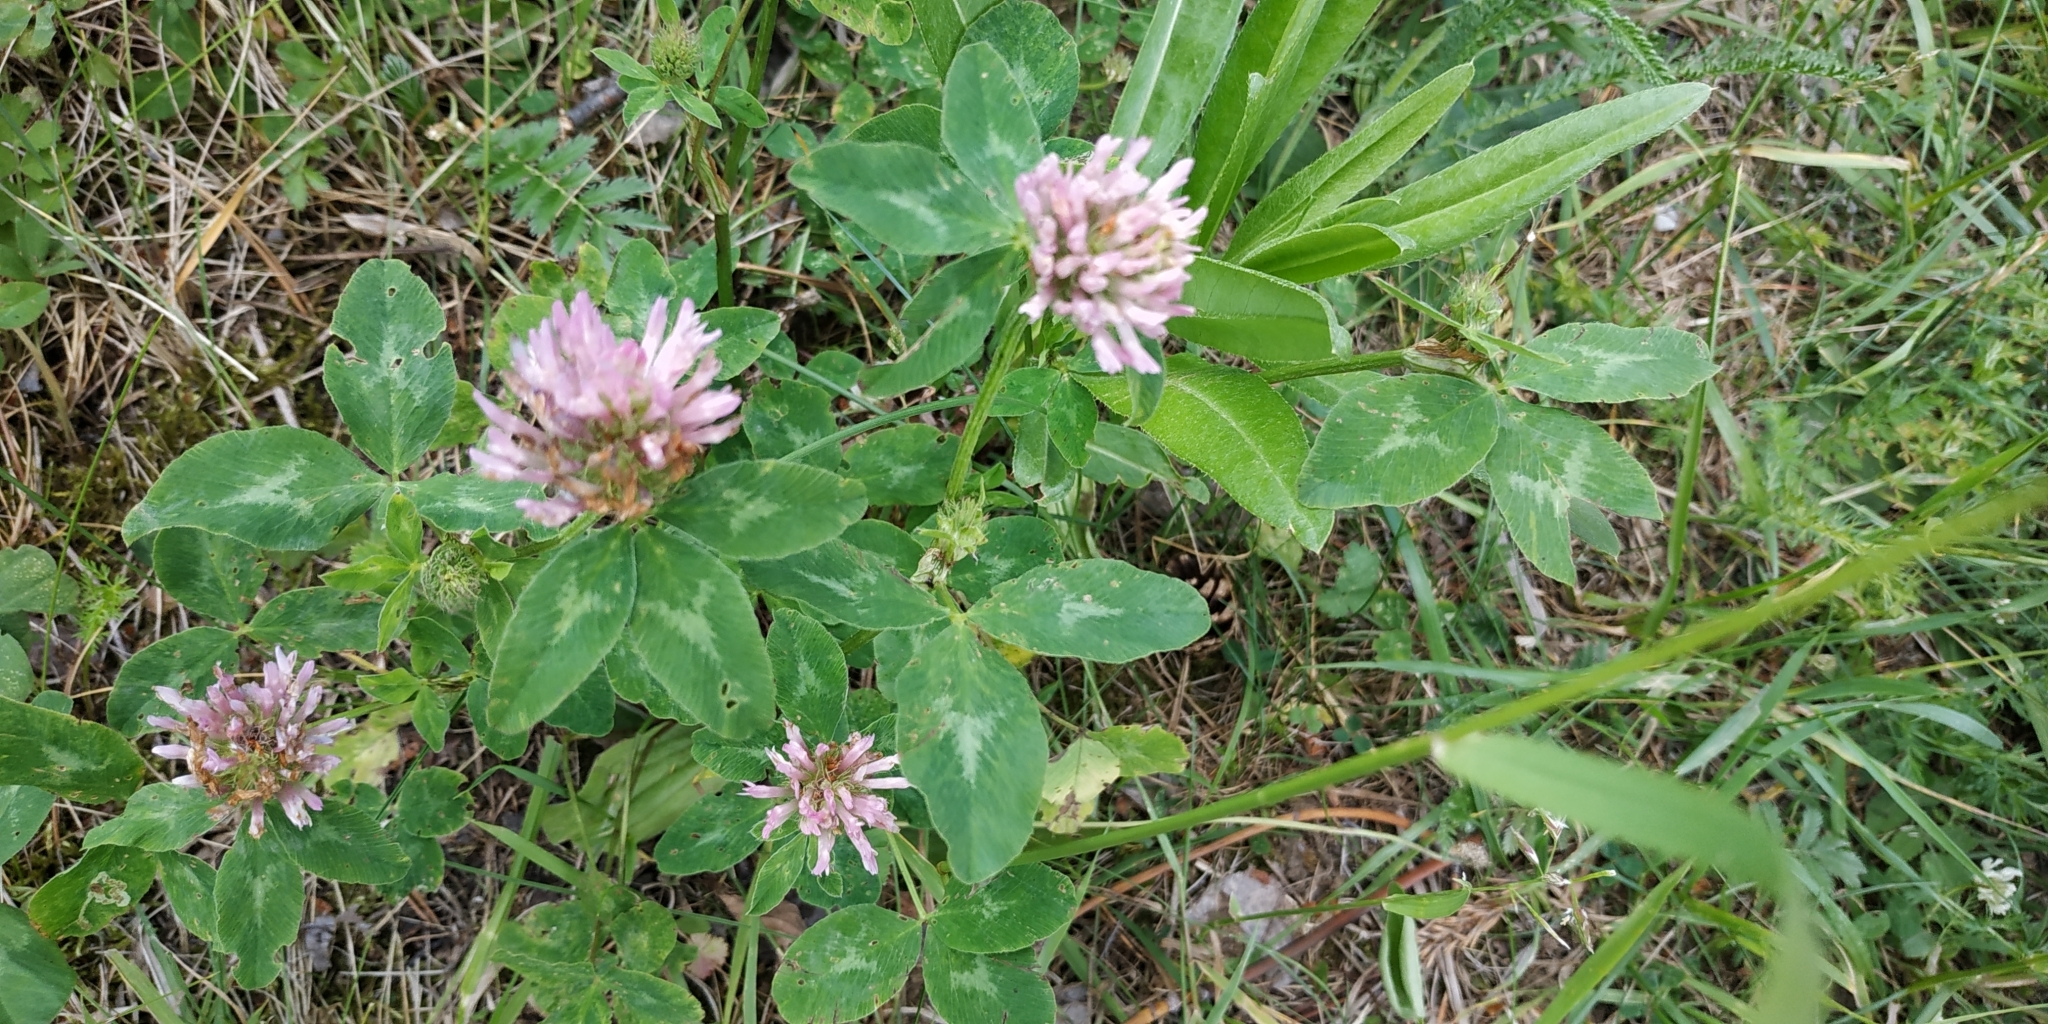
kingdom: Plantae
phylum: Tracheophyta
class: Magnoliopsida
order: Fabales
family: Fabaceae
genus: Trifolium
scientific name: Trifolium pratense
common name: Red clover
